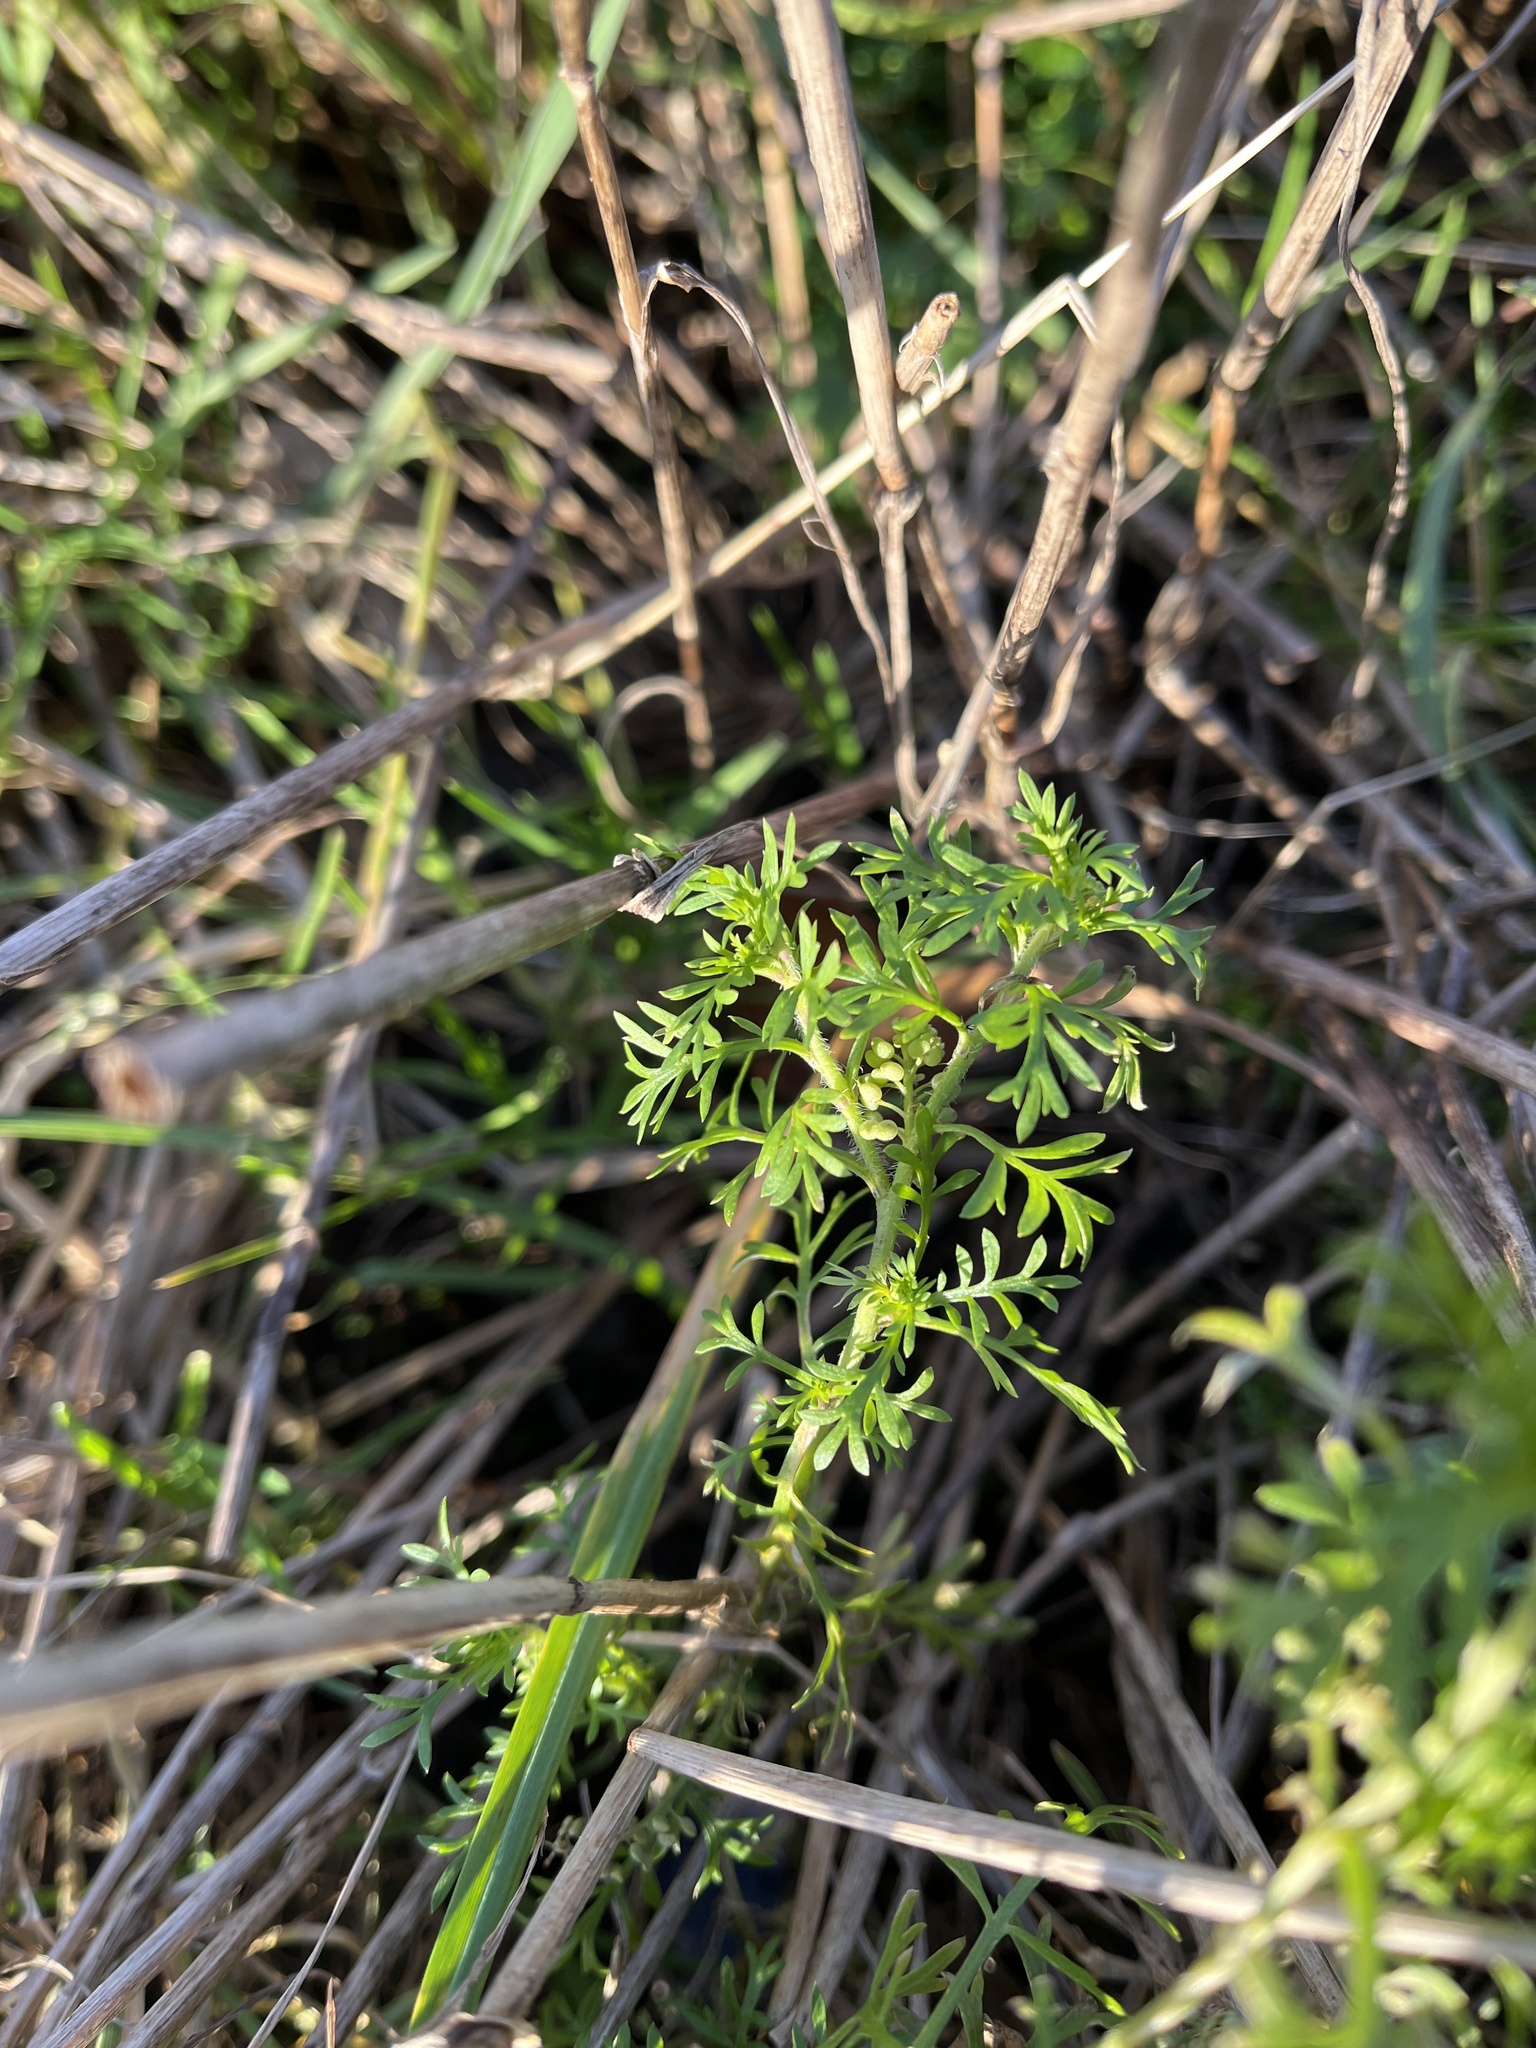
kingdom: Plantae
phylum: Tracheophyta
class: Magnoliopsida
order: Brassicales
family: Brassicaceae
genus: Lepidium
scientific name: Lepidium didymum
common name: Lesser swinecress
